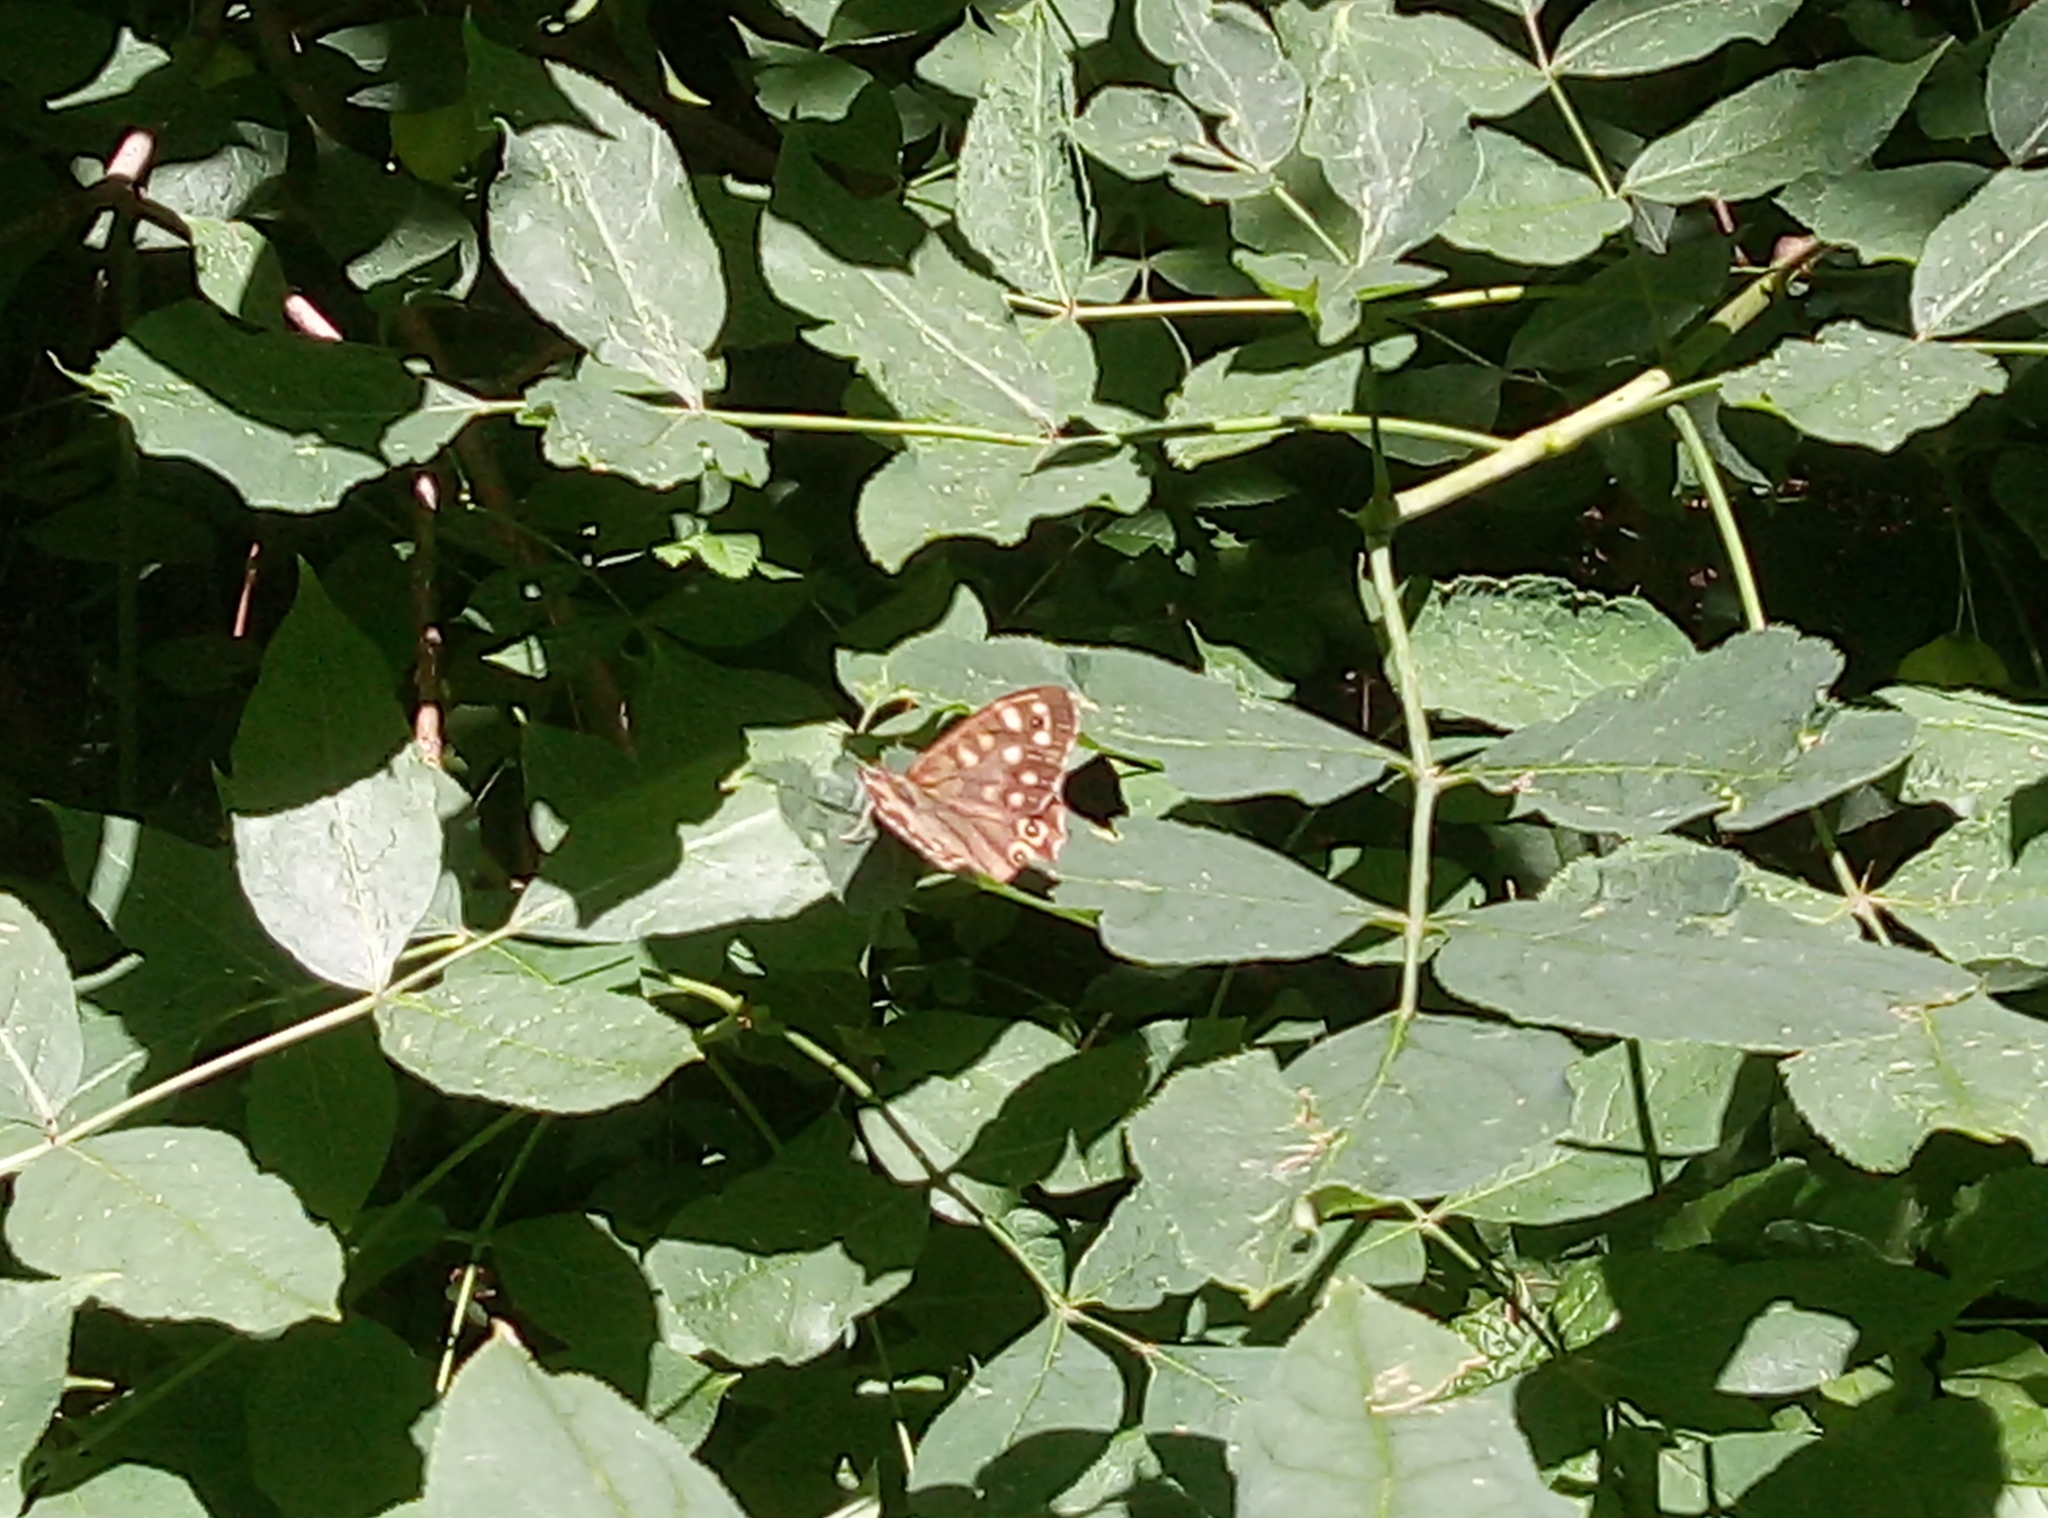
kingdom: Animalia
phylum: Arthropoda
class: Insecta
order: Lepidoptera
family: Nymphalidae
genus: Pararge
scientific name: Pararge aegeria
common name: Speckled wood
